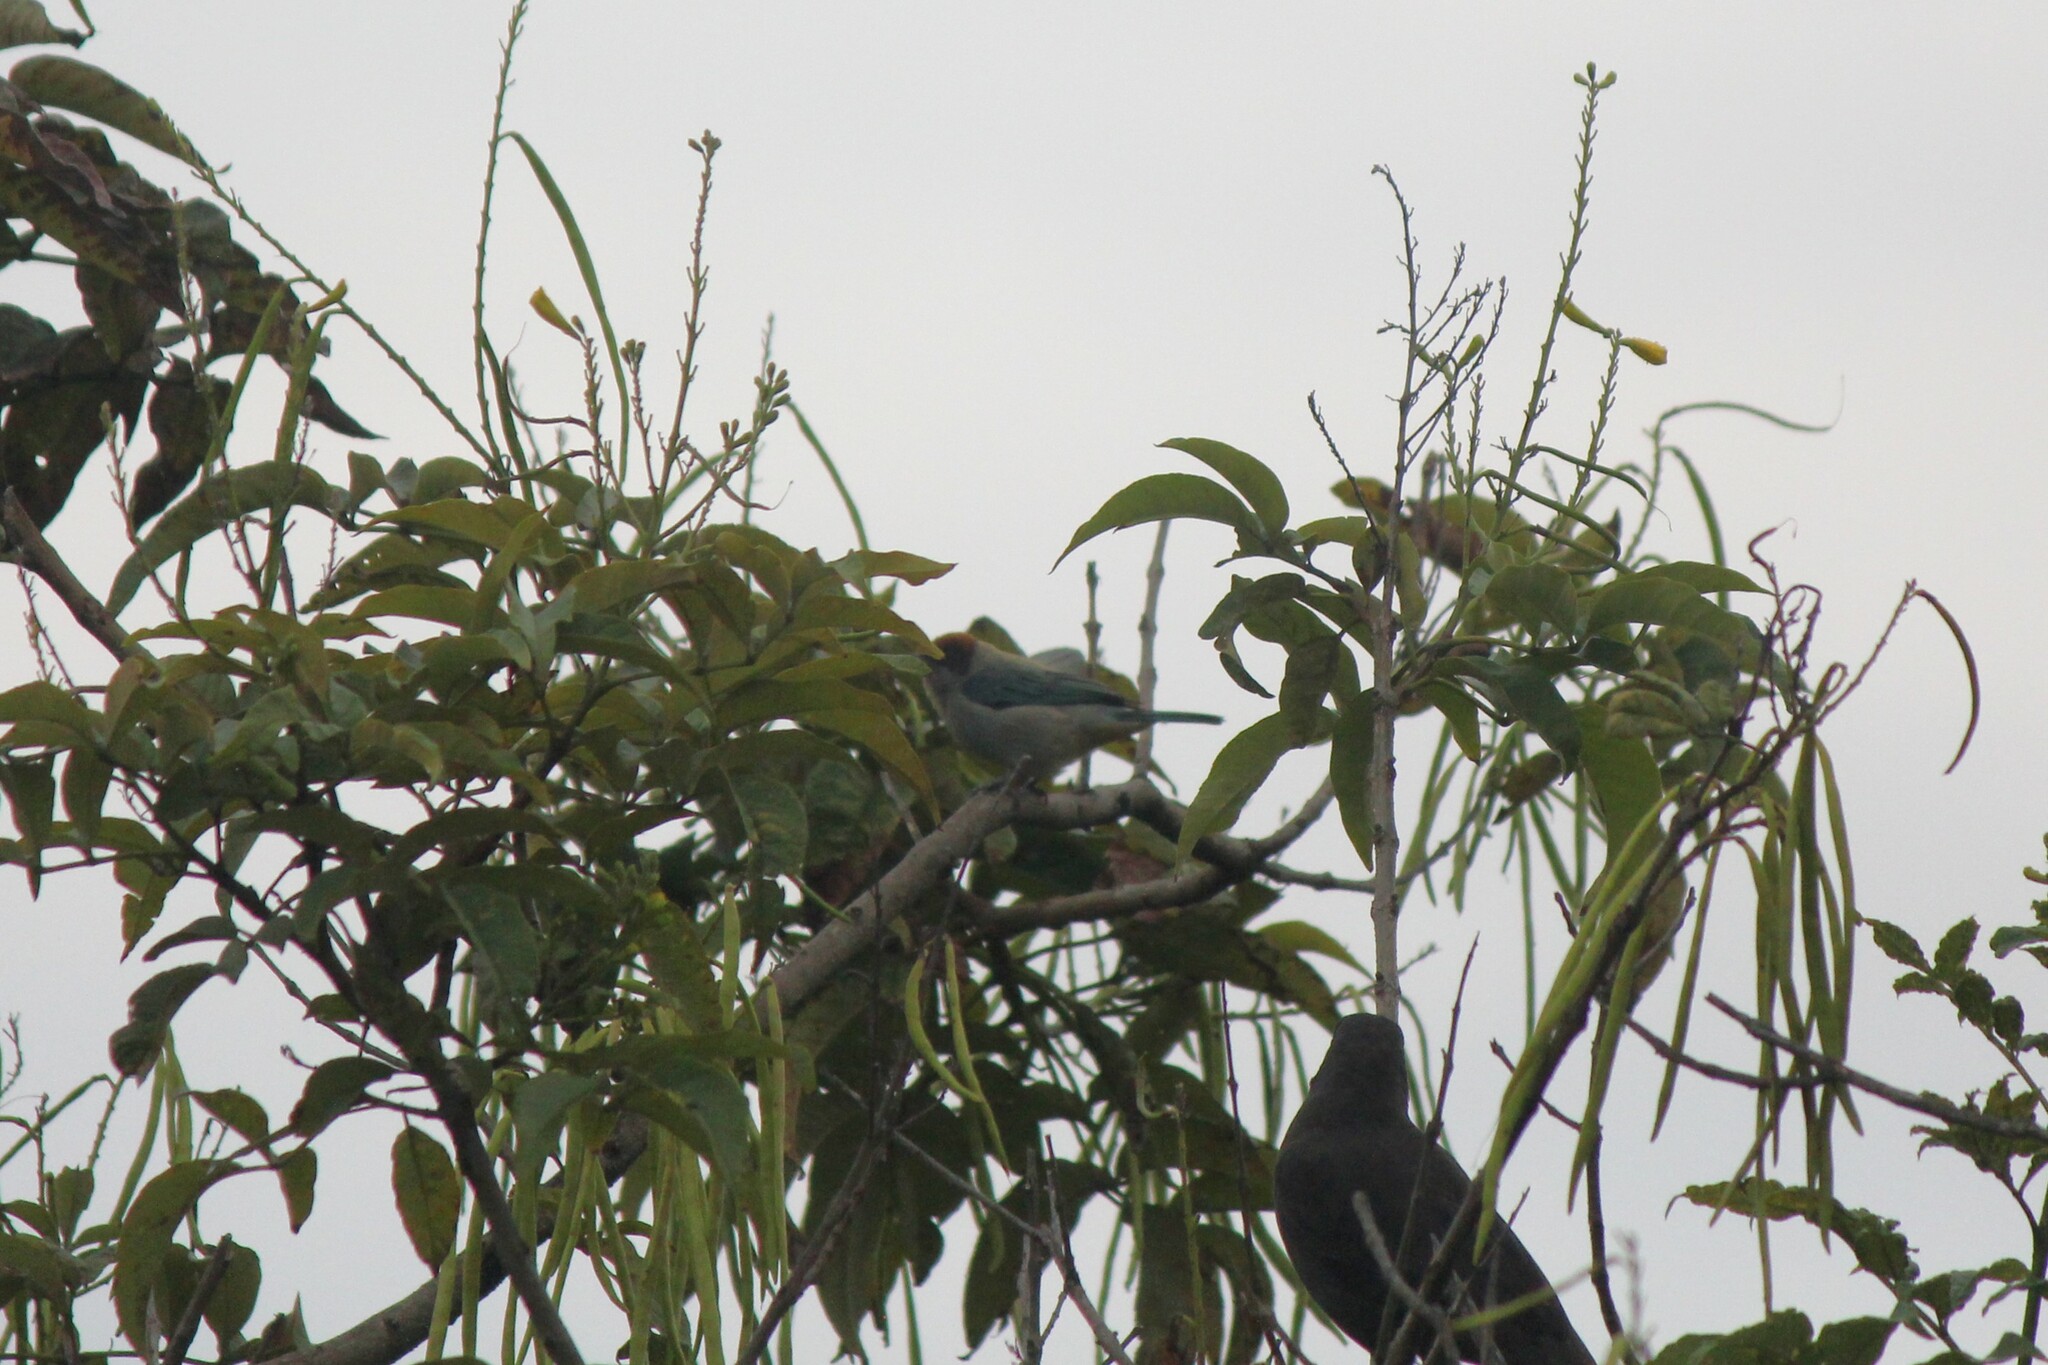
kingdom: Animalia
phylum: Chordata
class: Aves
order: Passeriformes
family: Thraupidae
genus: Stilpnia
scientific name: Stilpnia vitriolina
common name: Scrub tanager
